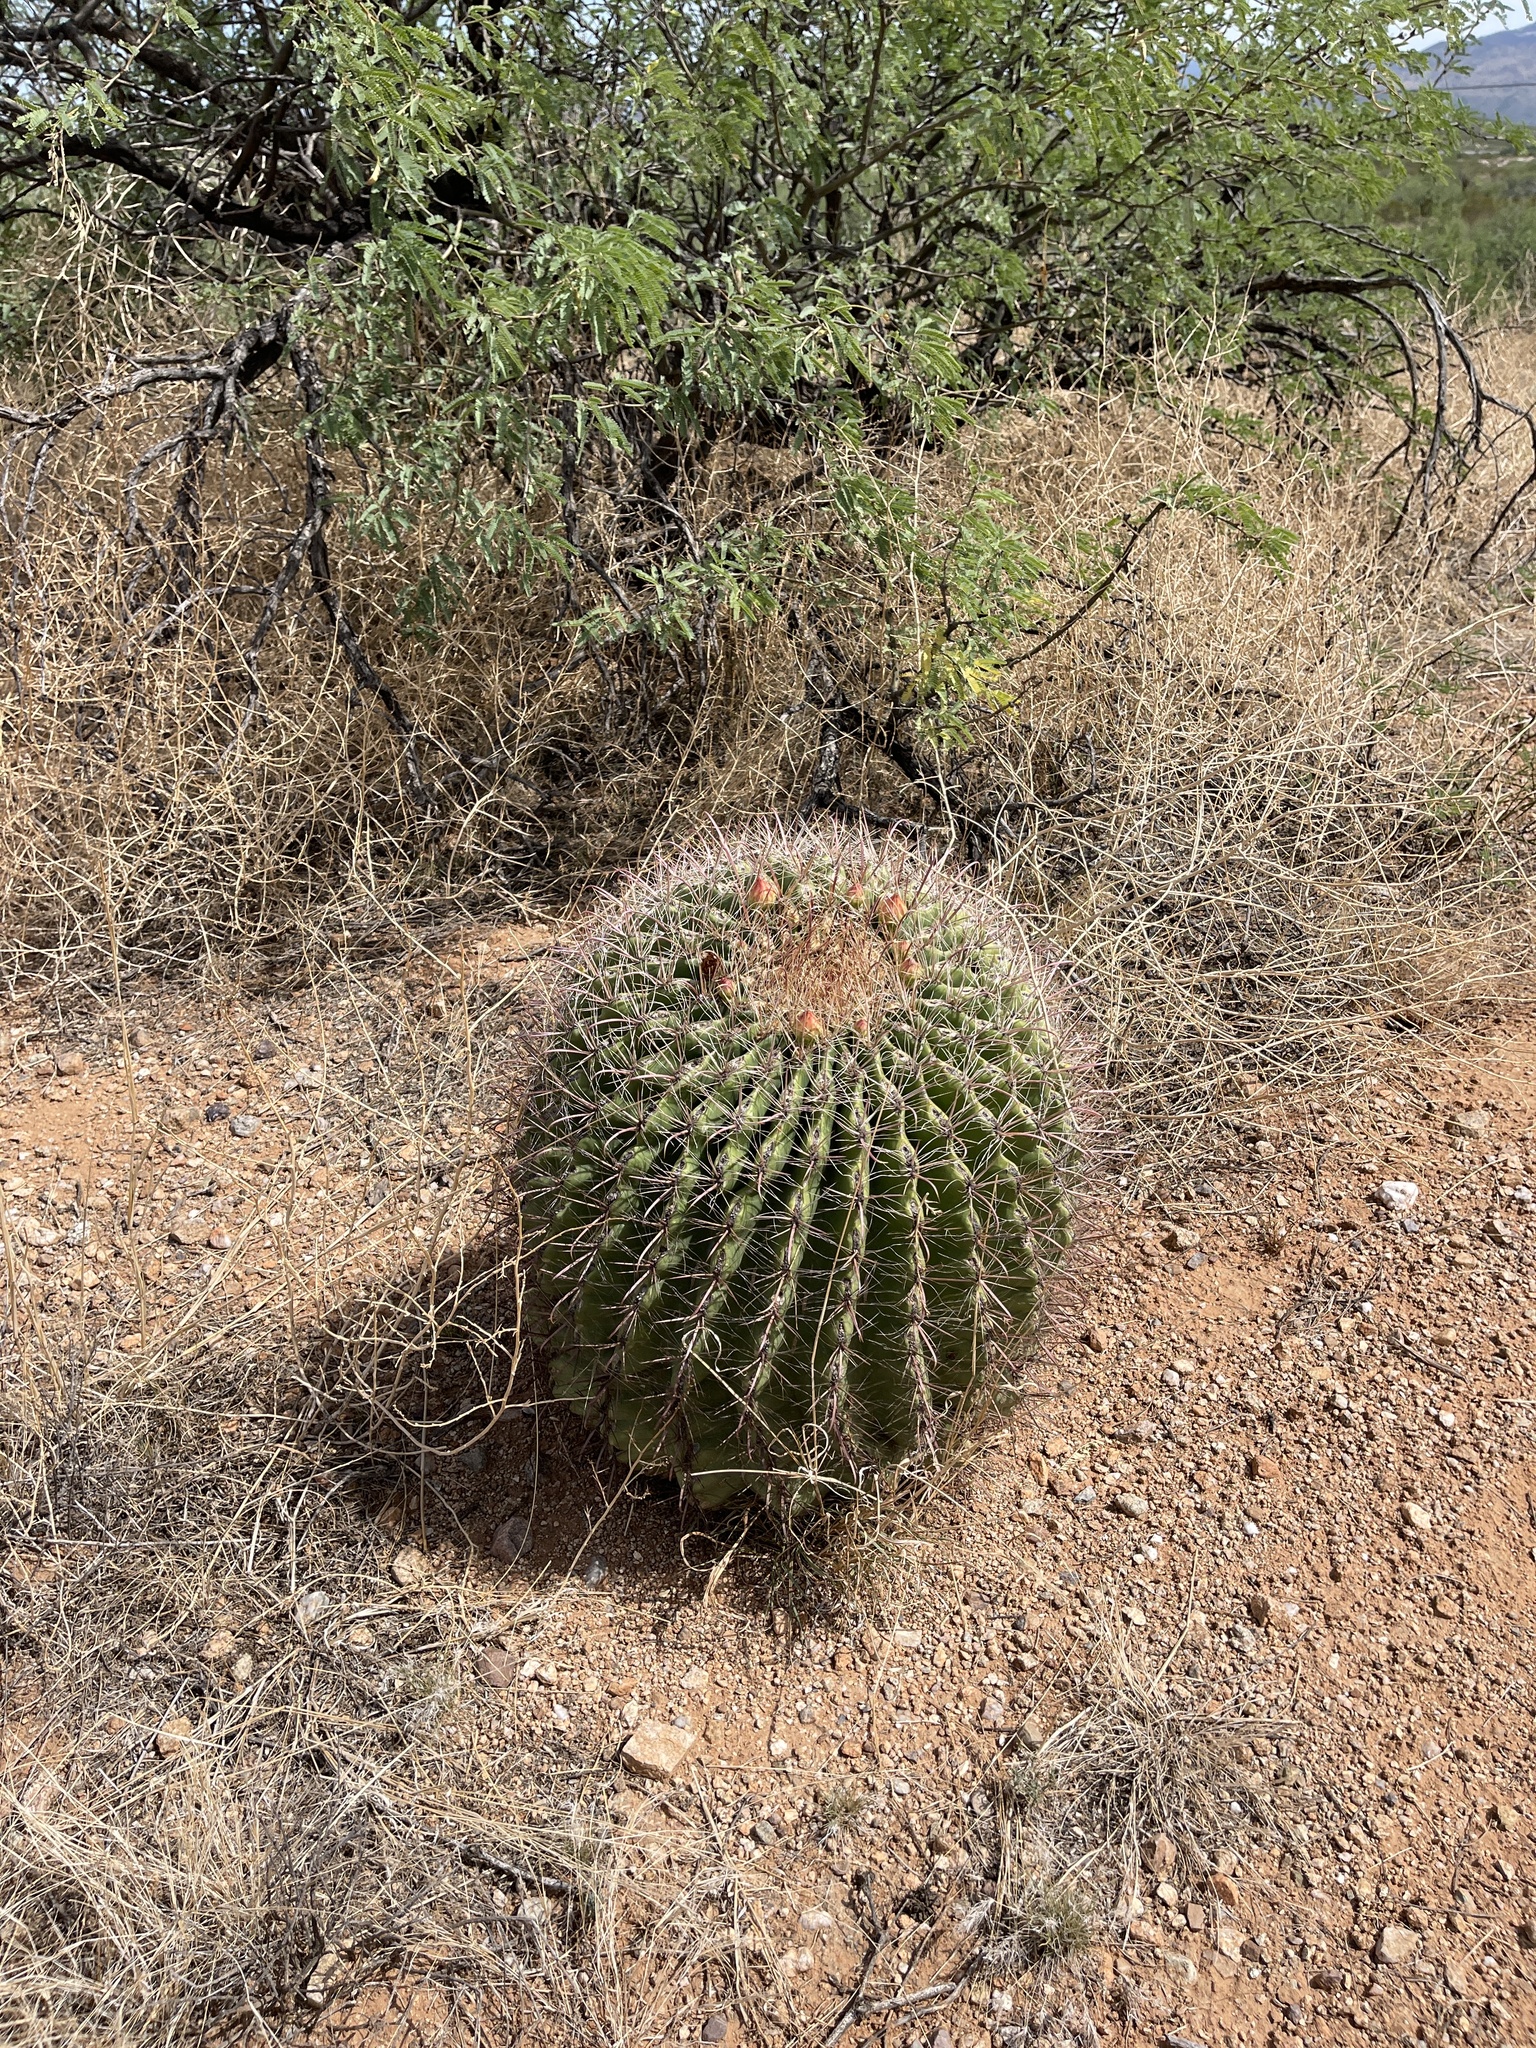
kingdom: Plantae
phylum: Tracheophyta
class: Magnoliopsida
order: Caryophyllales
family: Cactaceae
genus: Ferocactus
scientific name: Ferocactus wislizeni
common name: Candy barrel cactus
